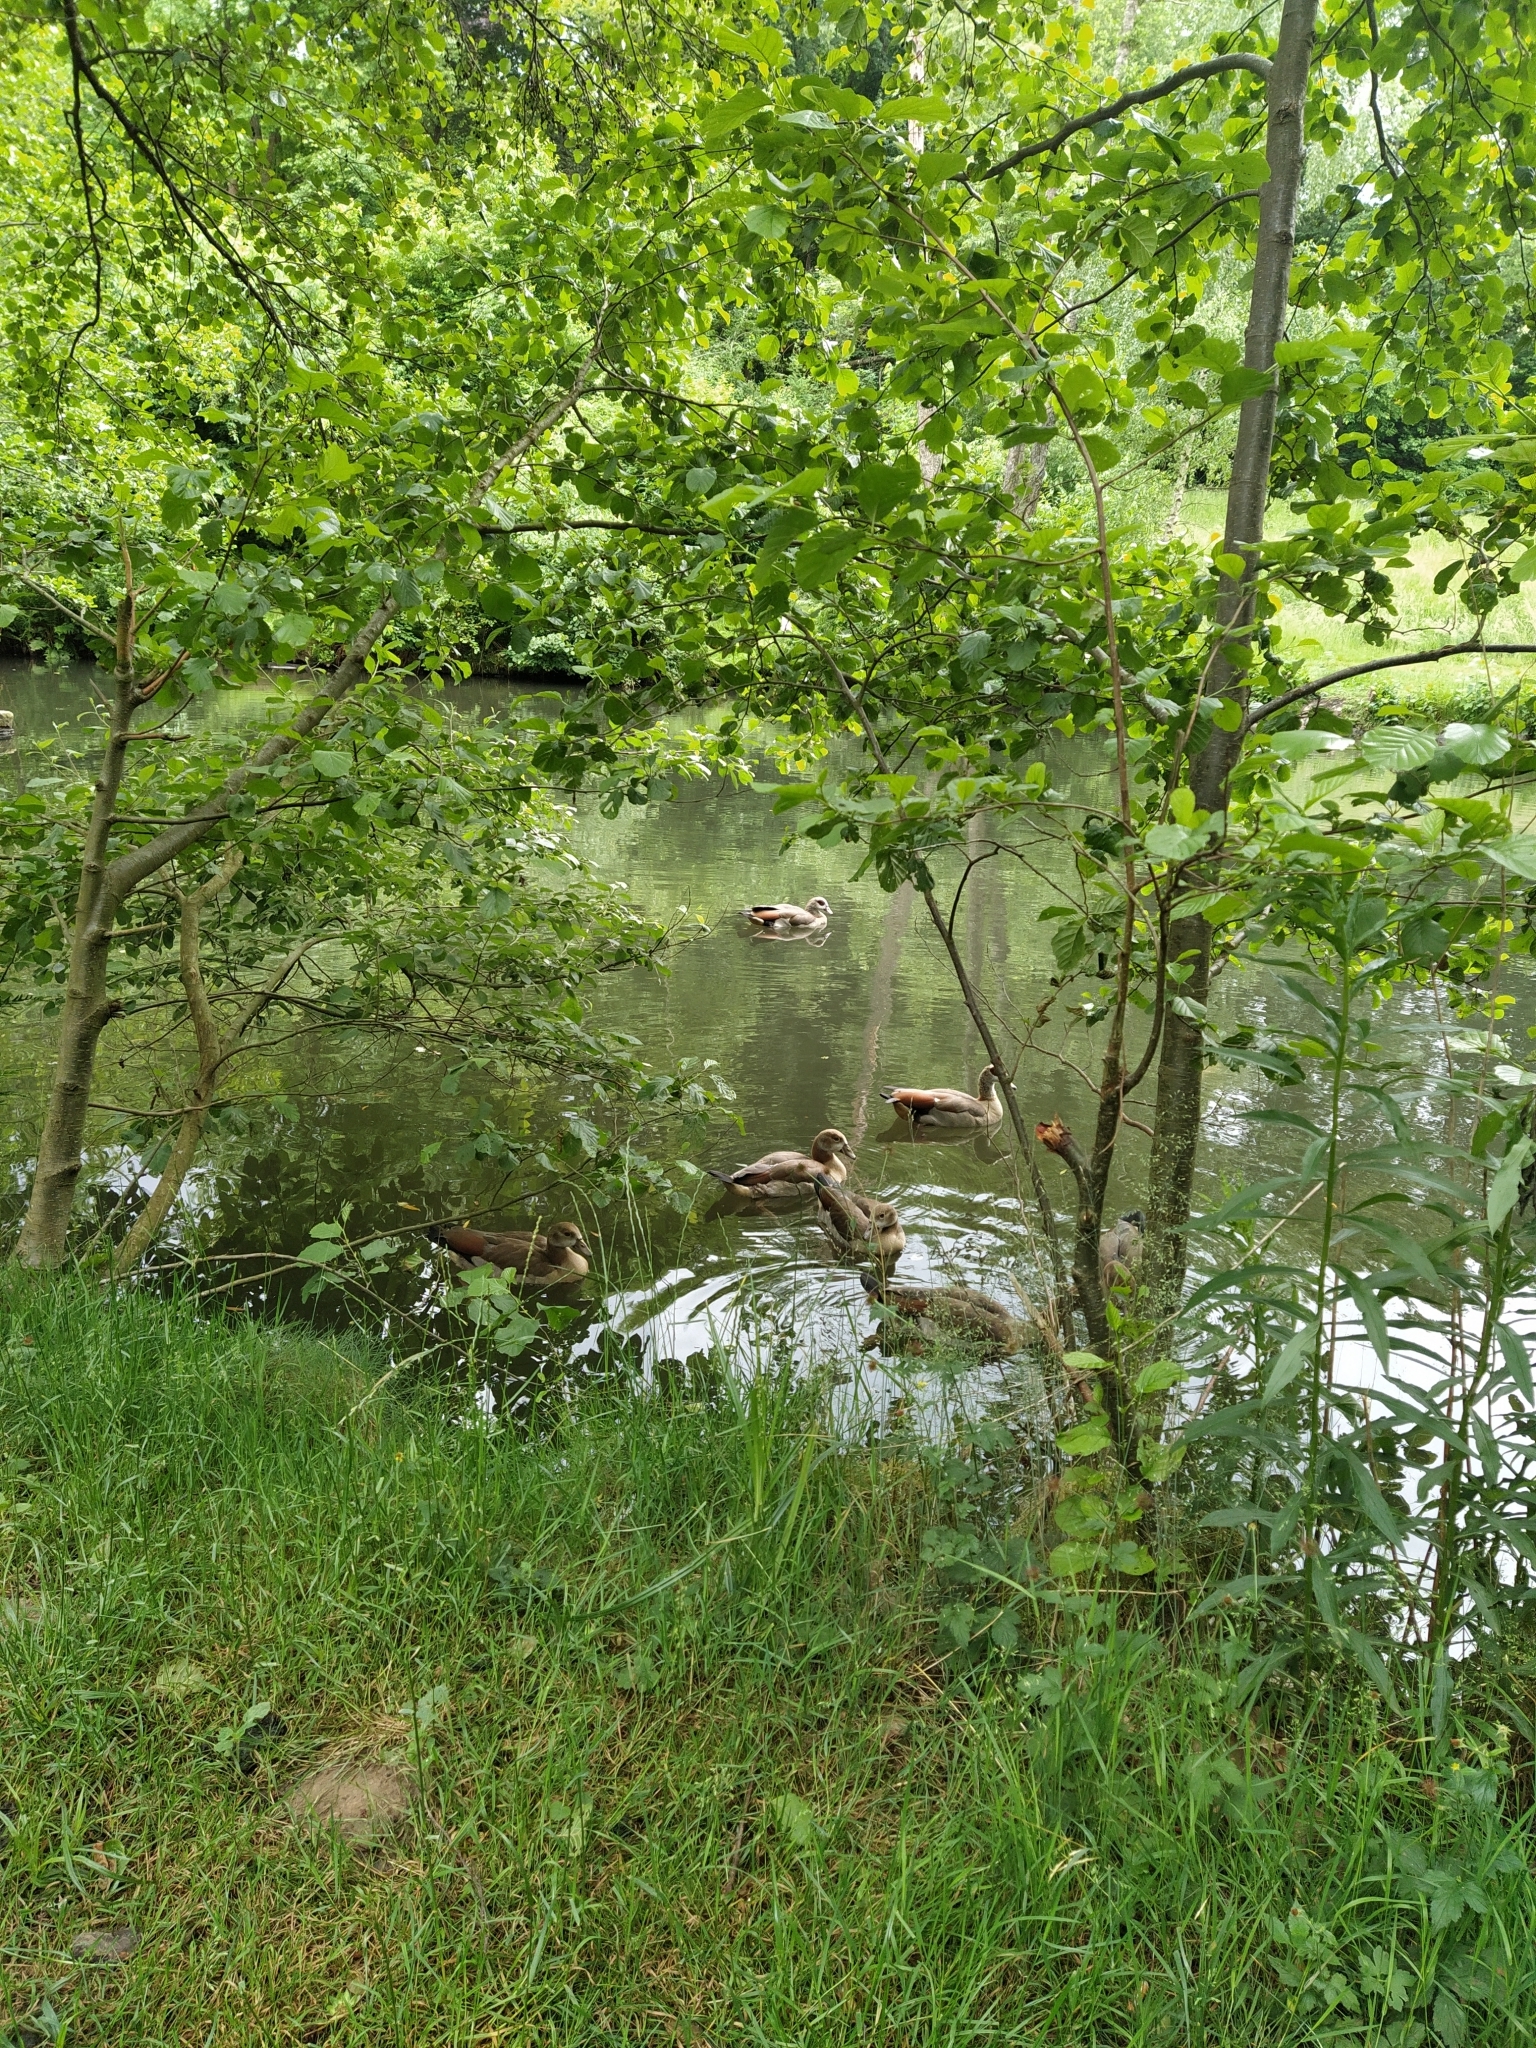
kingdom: Animalia
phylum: Chordata
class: Aves
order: Anseriformes
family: Anatidae
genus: Alopochen
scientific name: Alopochen aegyptiaca
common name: Egyptian goose
